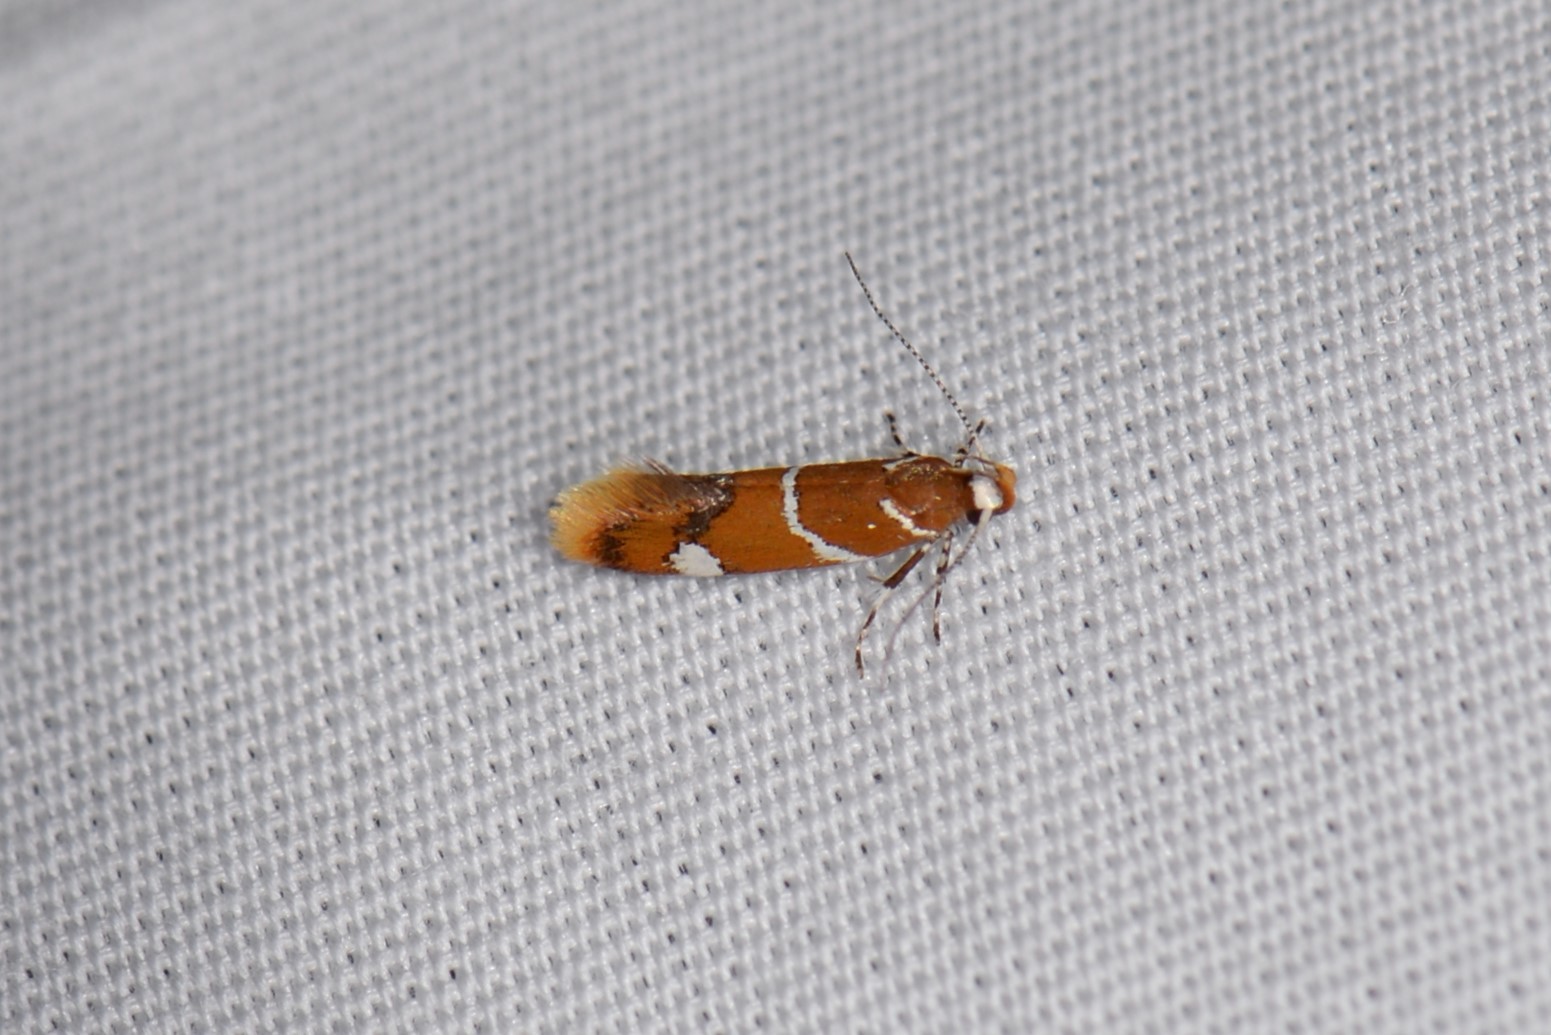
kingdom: Animalia
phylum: Arthropoda
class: Insecta
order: Lepidoptera
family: Oecophoridae
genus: Promalactis
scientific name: Promalactis suzukiella
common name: Moth
